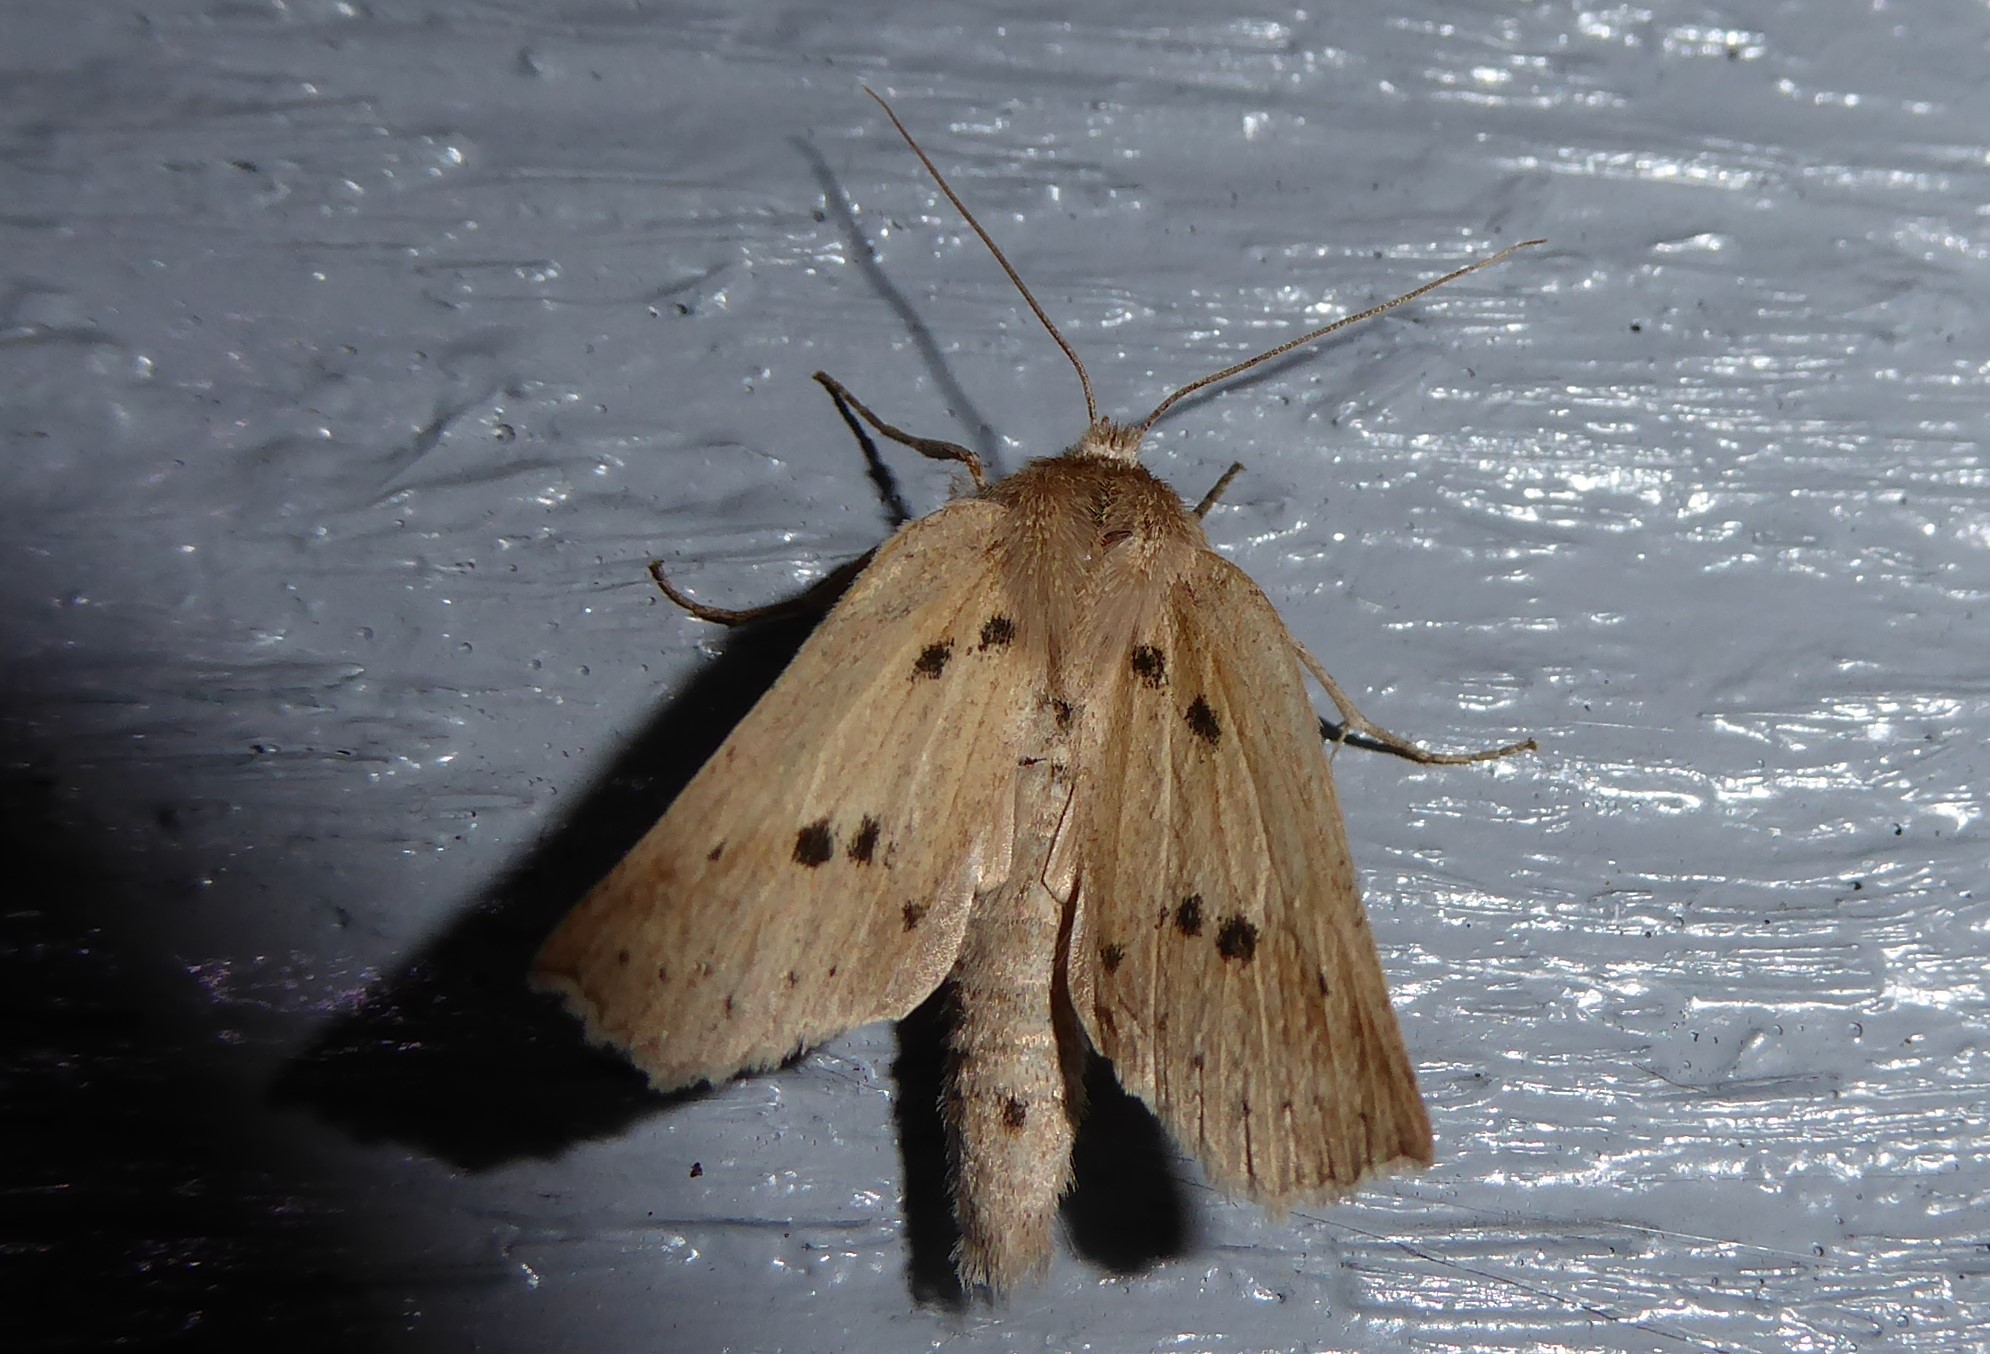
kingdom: Animalia
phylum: Arthropoda
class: Insecta
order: Lepidoptera
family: Geometridae
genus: Declana
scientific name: Declana leptomera
